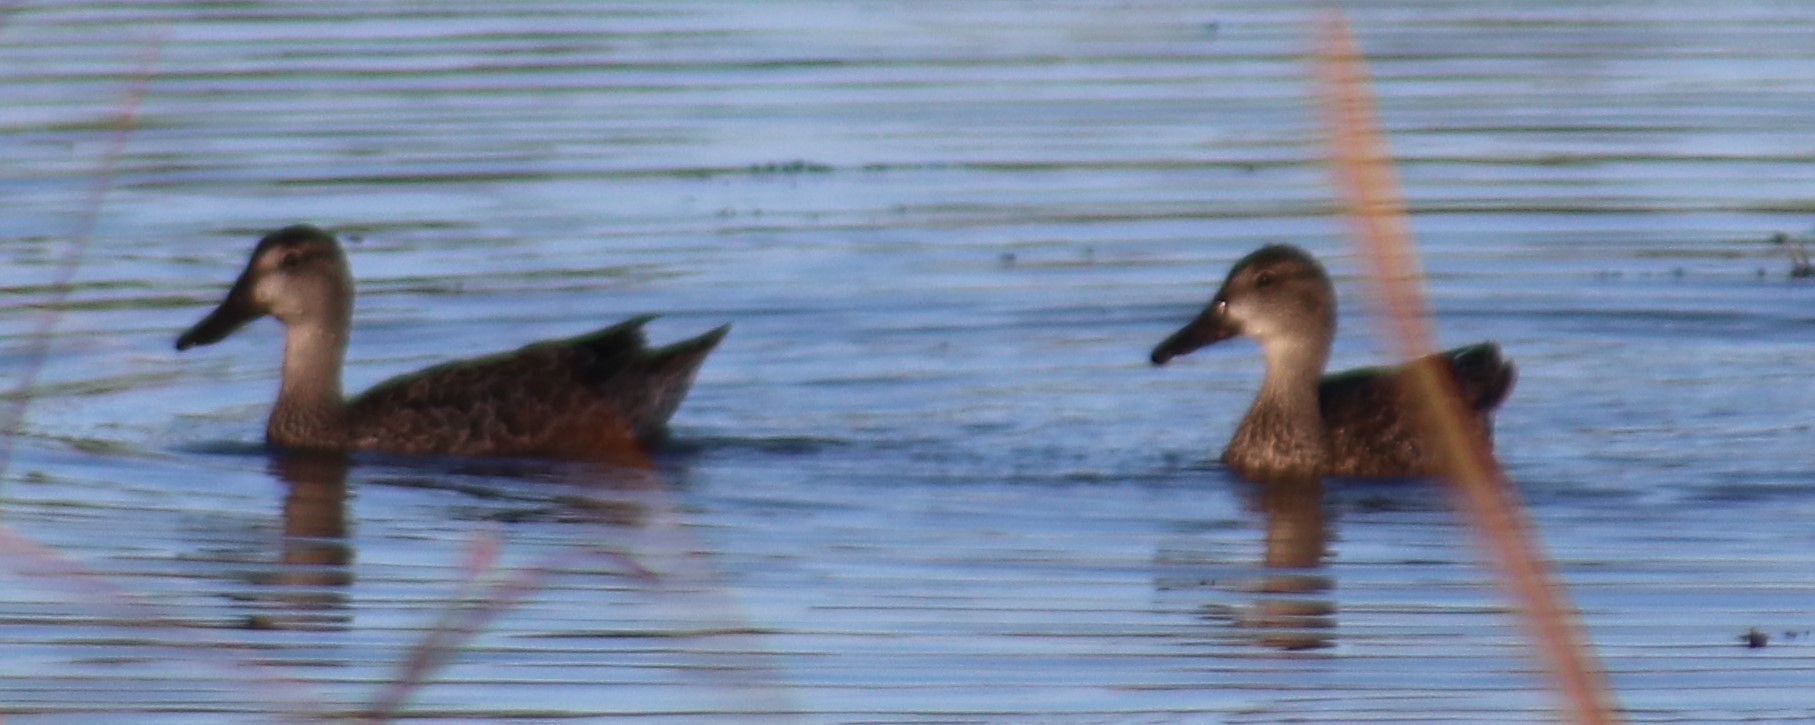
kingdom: Animalia
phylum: Chordata
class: Aves
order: Anseriformes
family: Anatidae
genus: Spatula
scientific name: Spatula discors
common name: Blue-winged teal
